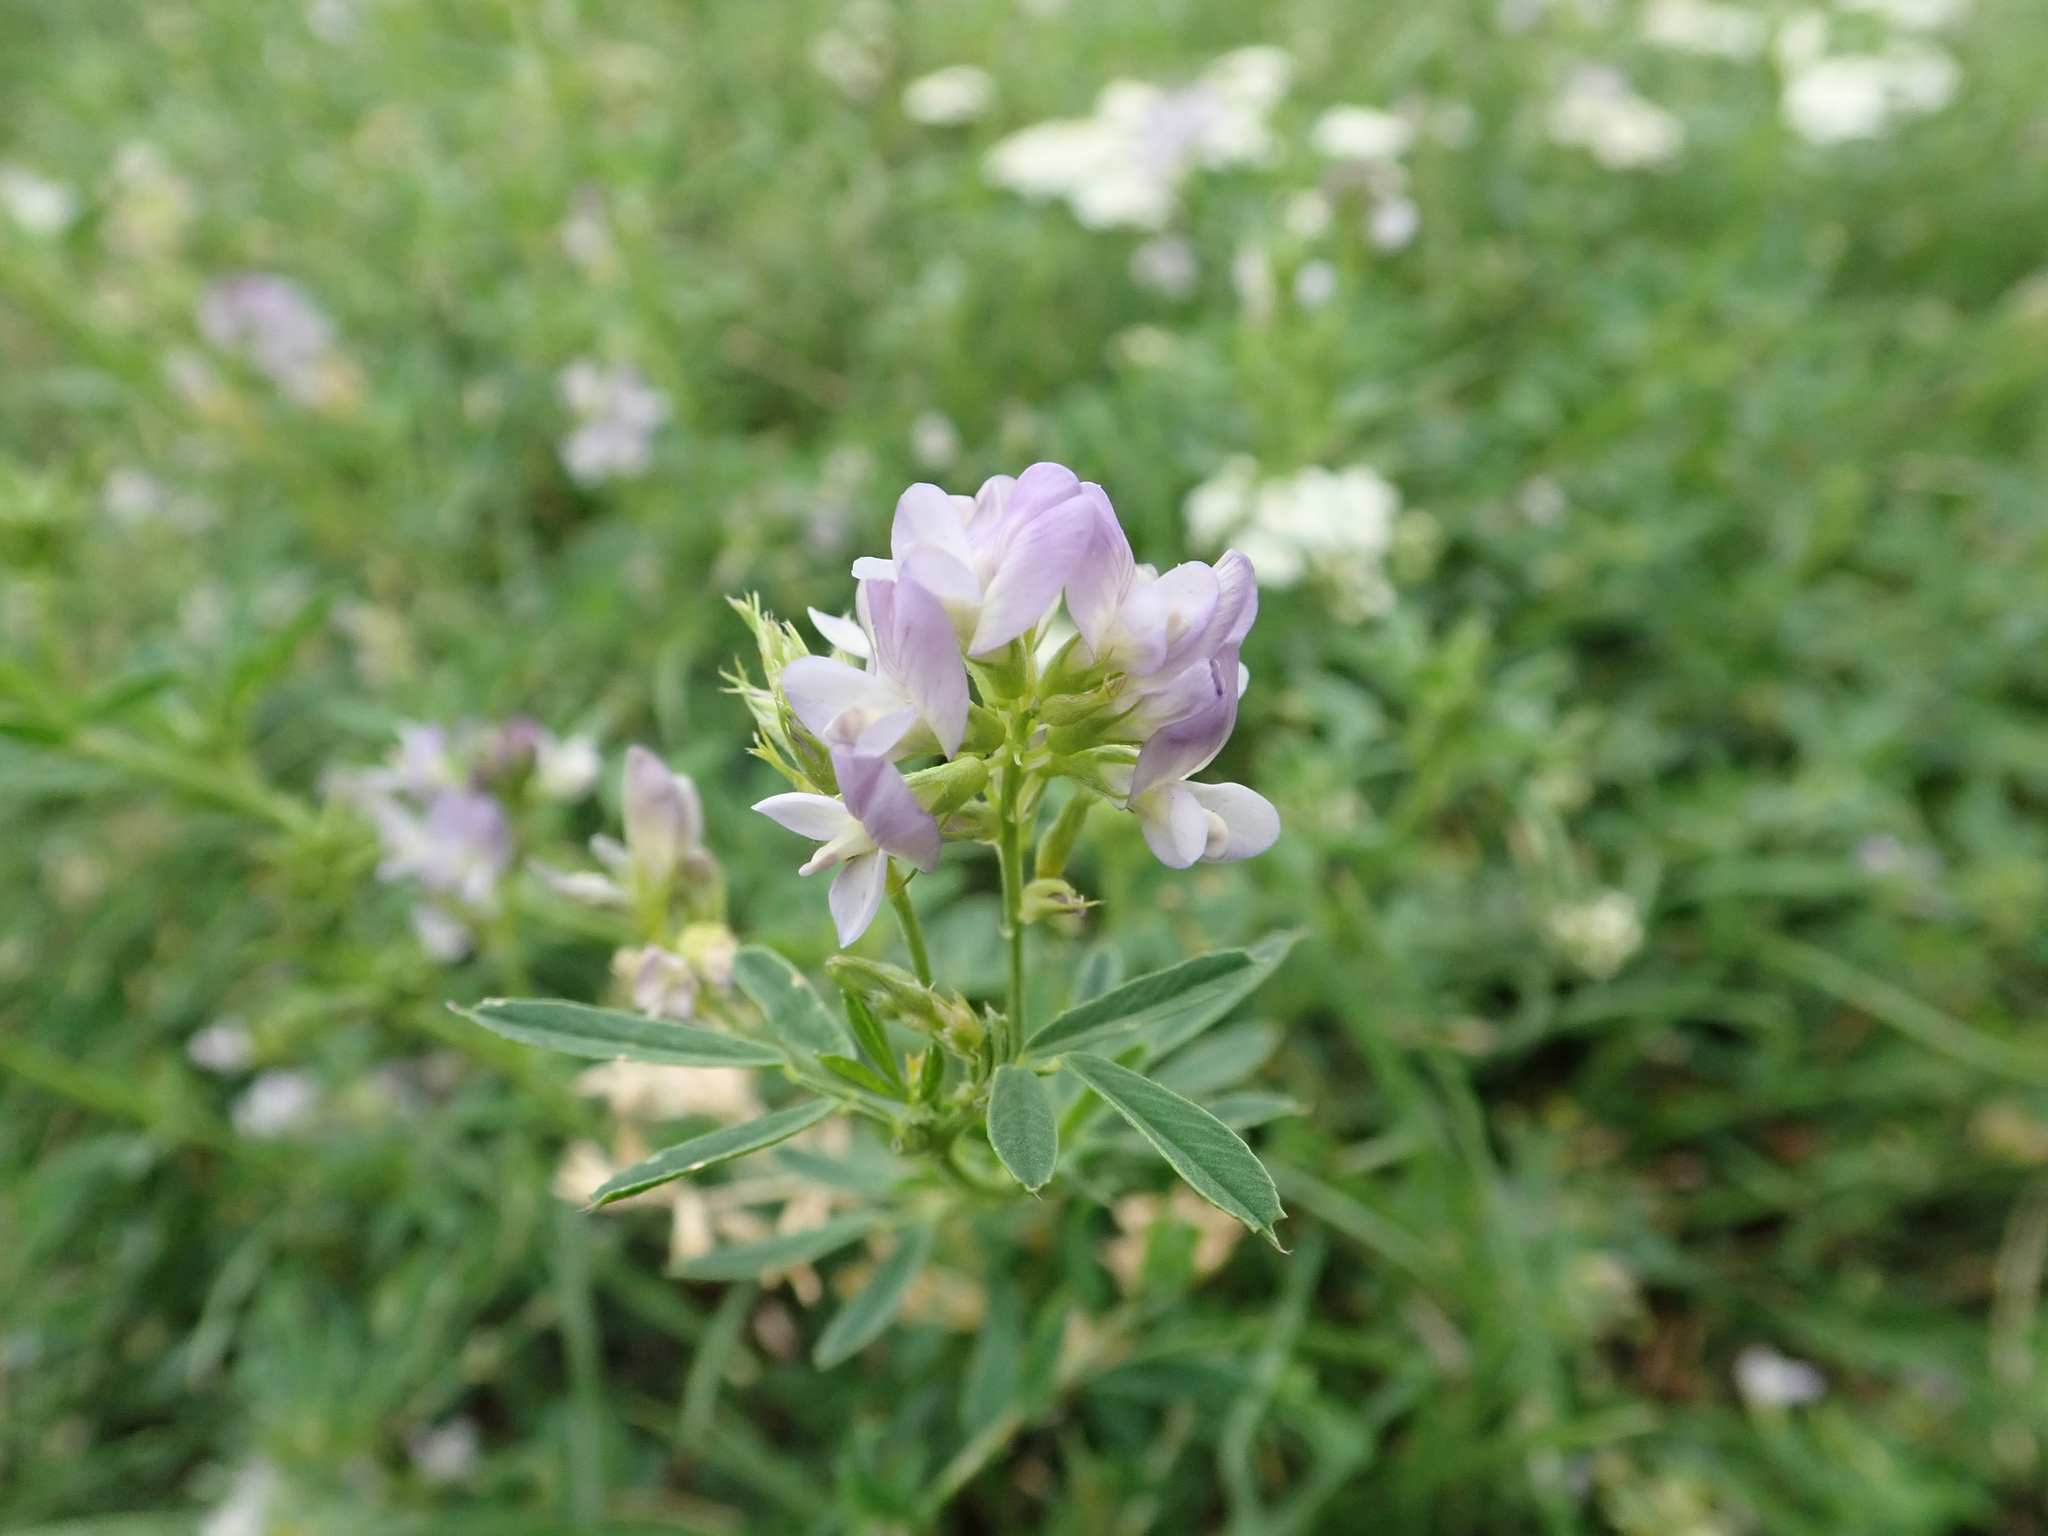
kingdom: Plantae
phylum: Tracheophyta
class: Magnoliopsida
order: Fabales
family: Fabaceae
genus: Medicago
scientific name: Medicago varia
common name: Sand lucerne
